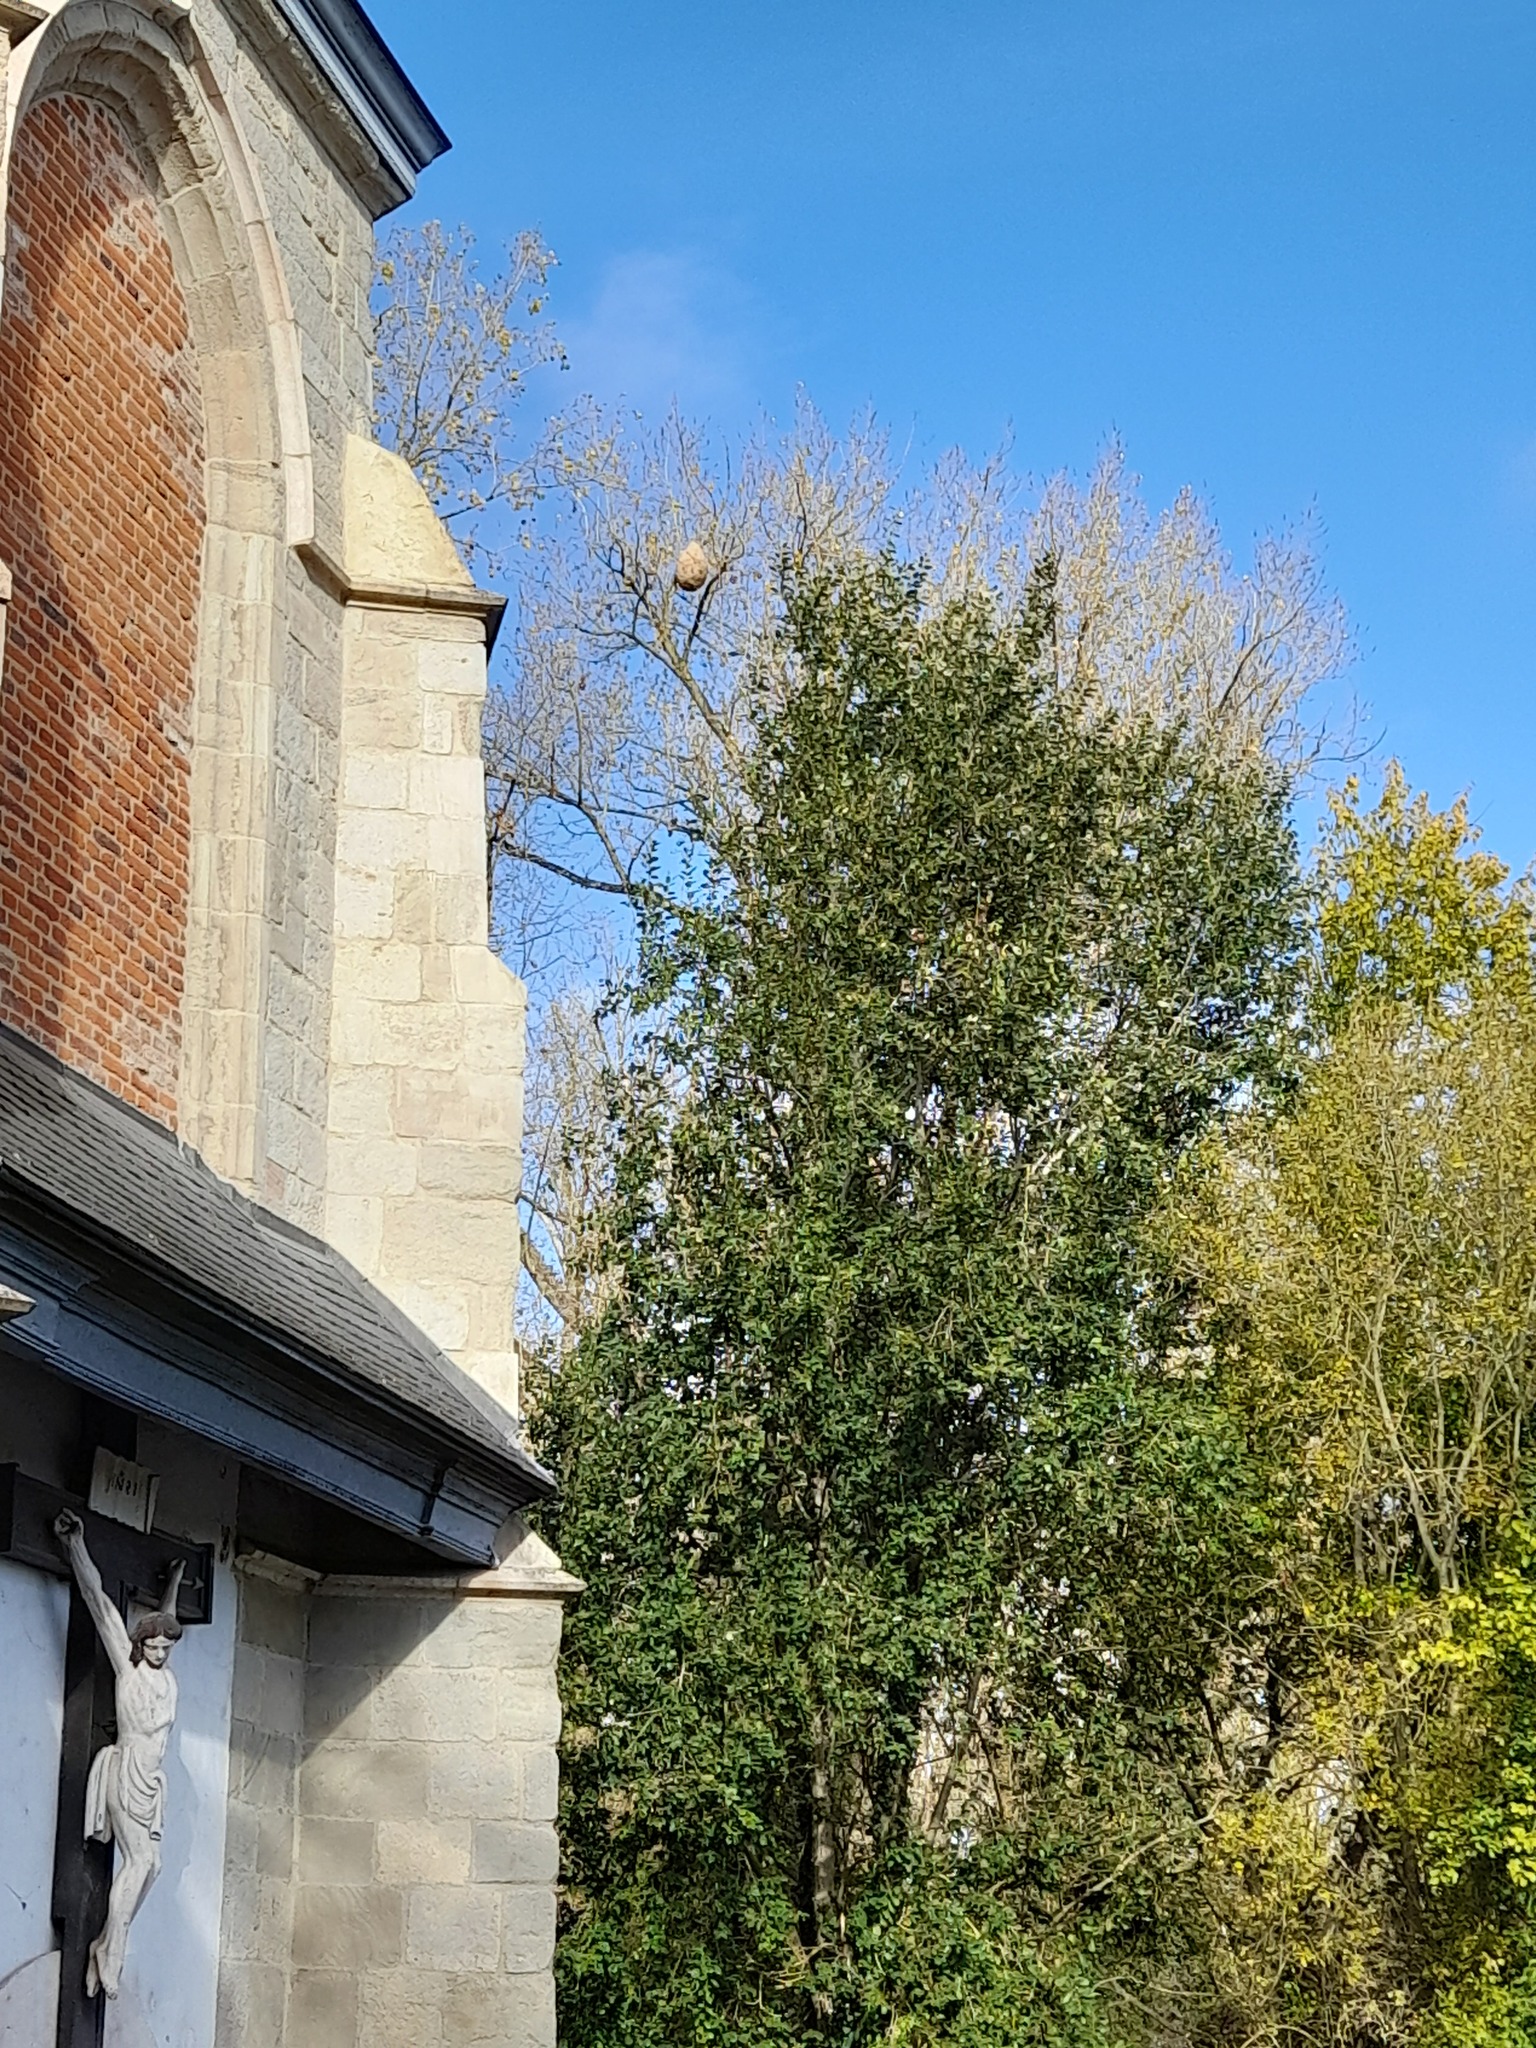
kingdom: Animalia
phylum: Arthropoda
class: Insecta
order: Hymenoptera
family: Vespidae
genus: Vespa
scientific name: Vespa velutina
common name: Asian hornet
